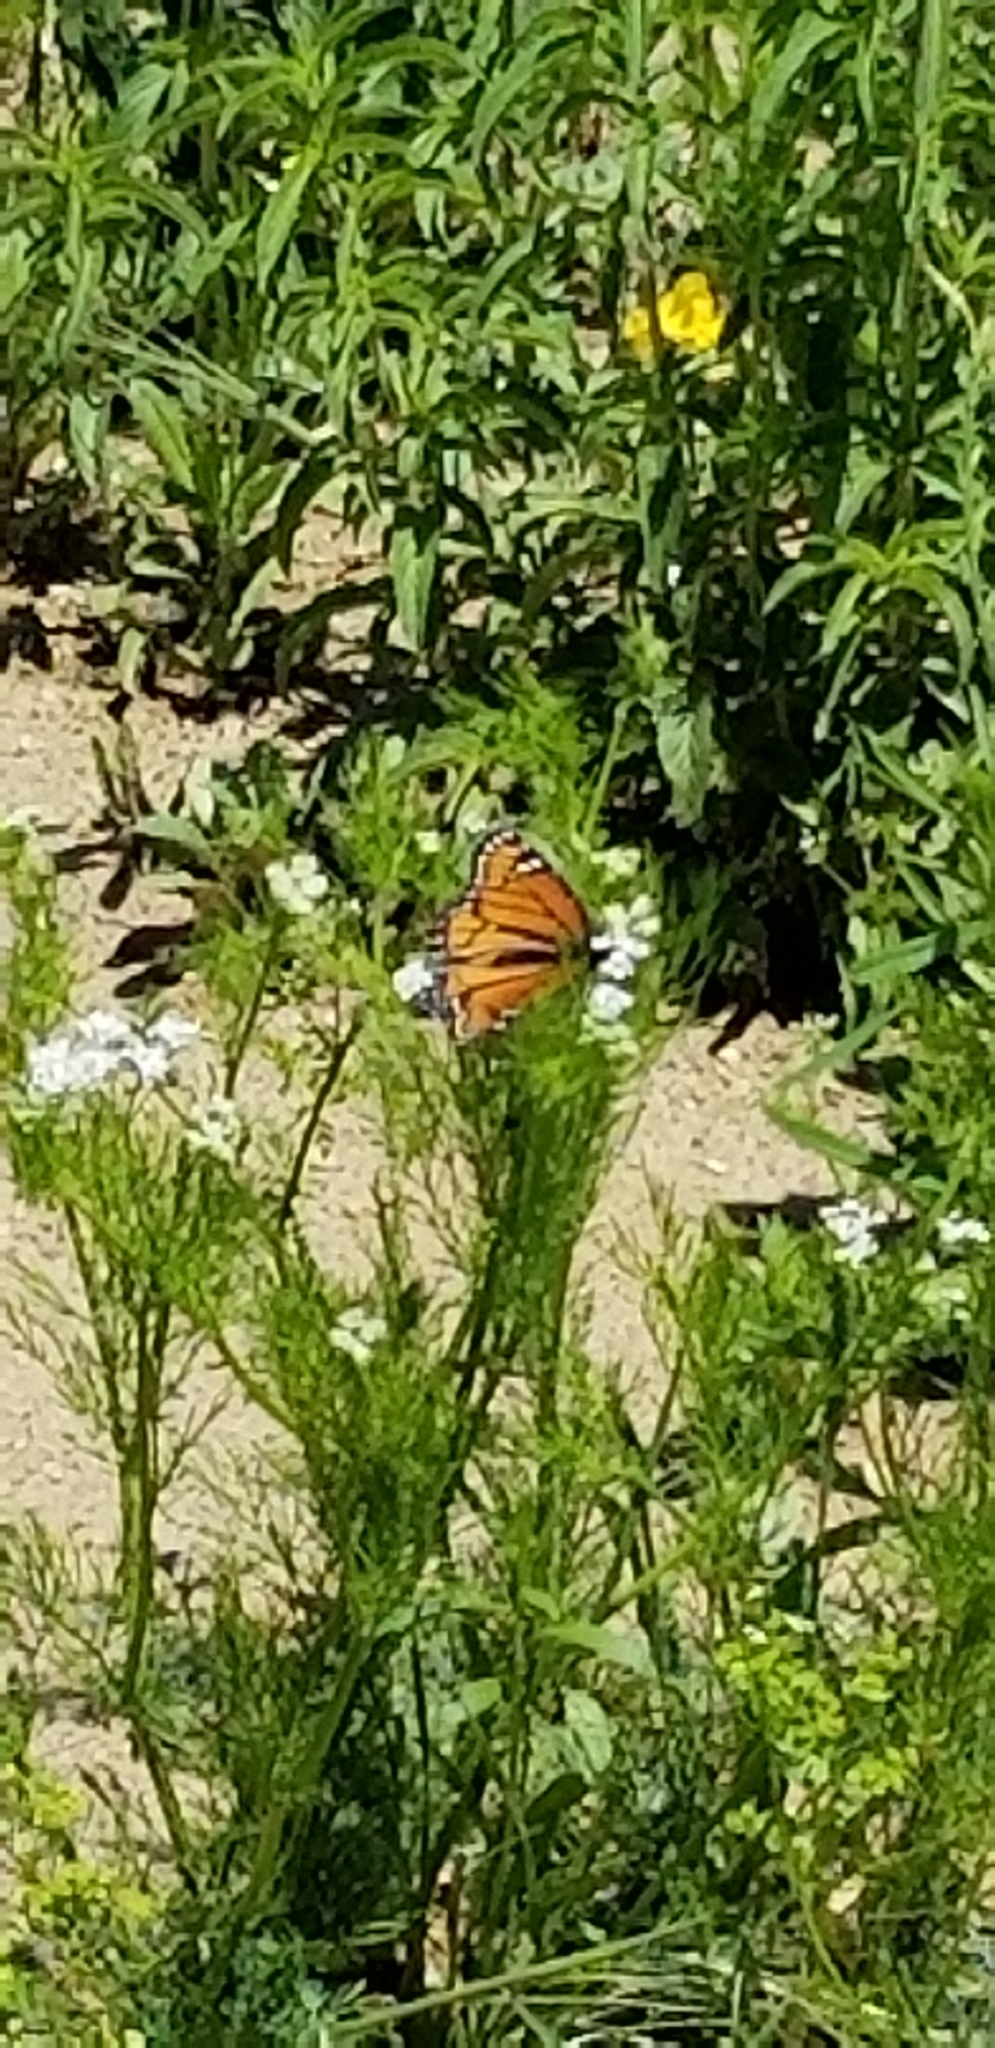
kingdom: Animalia
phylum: Arthropoda
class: Insecta
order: Lepidoptera
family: Nymphalidae
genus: Limenitis
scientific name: Limenitis archippus
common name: Viceroy
